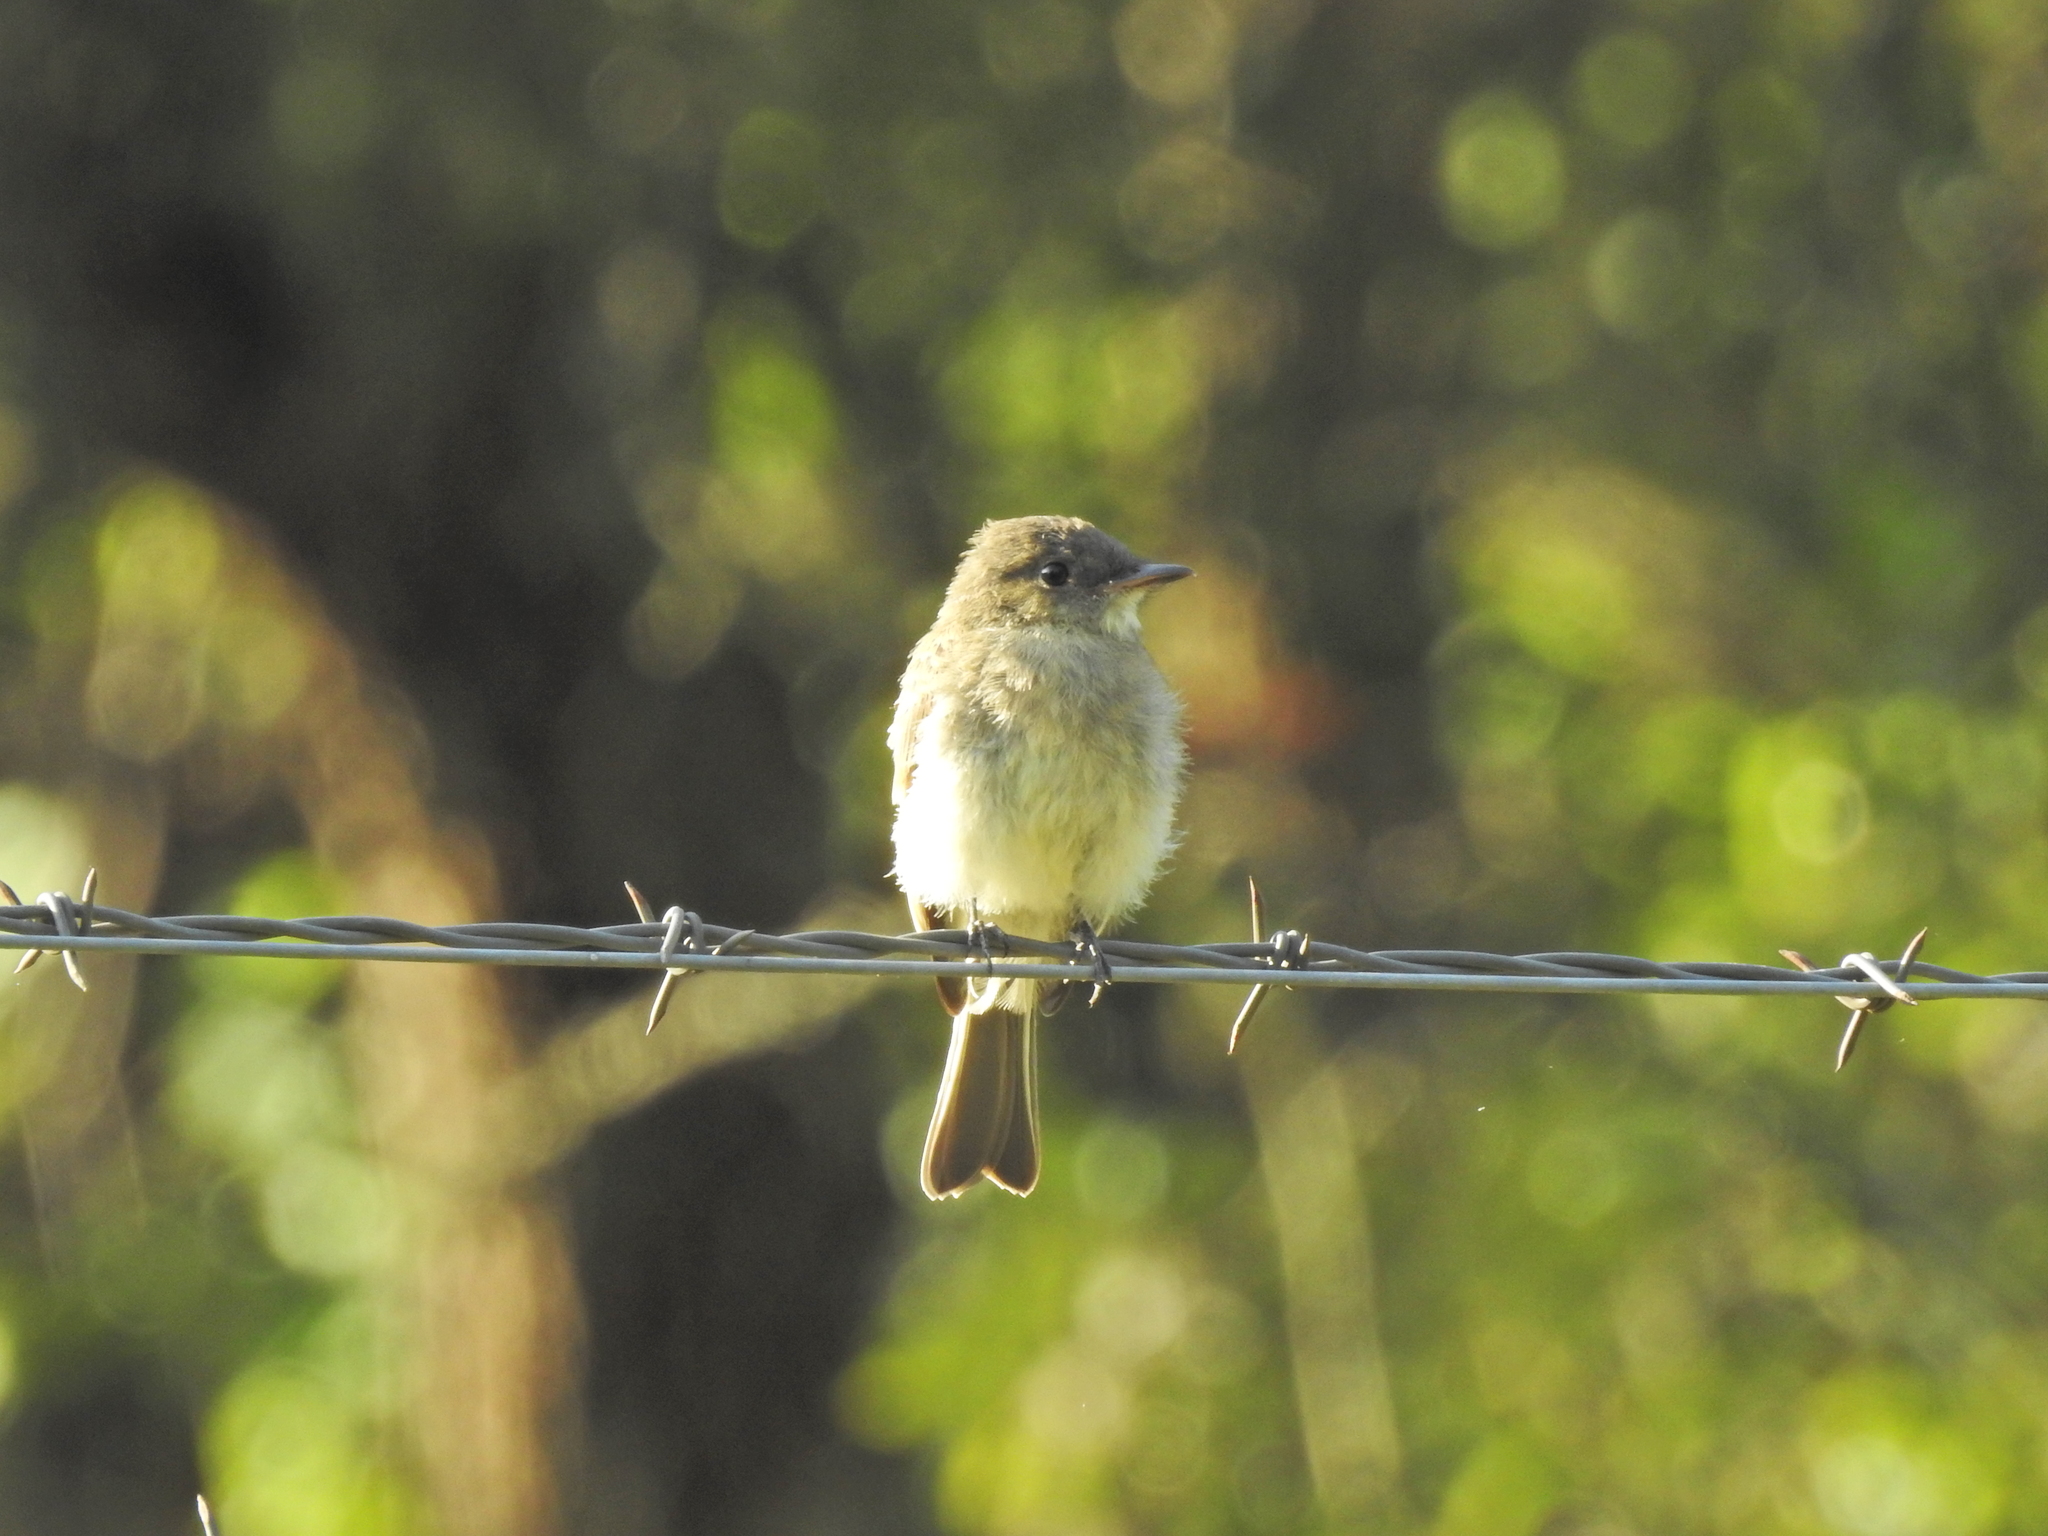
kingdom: Animalia
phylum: Chordata
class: Aves
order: Passeriformes
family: Tyrannidae
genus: Sayornis
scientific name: Sayornis phoebe
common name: Eastern phoebe
